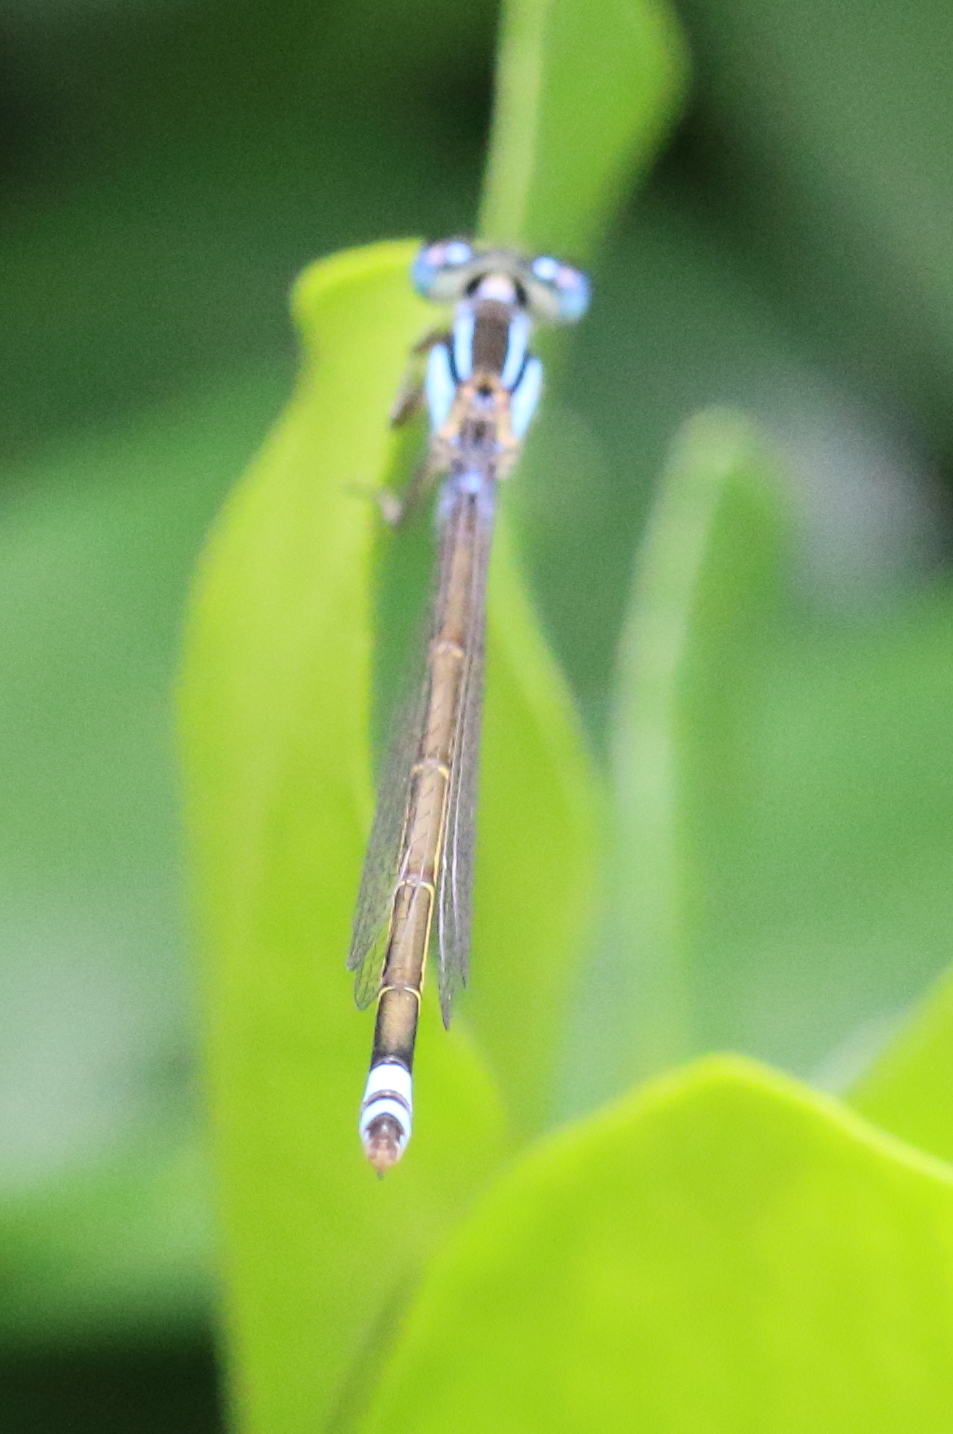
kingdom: Animalia
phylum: Arthropoda
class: Insecta
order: Odonata
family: Coenagrionidae
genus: Ischnura
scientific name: Ischnura heterosticta
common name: Common bluetail
